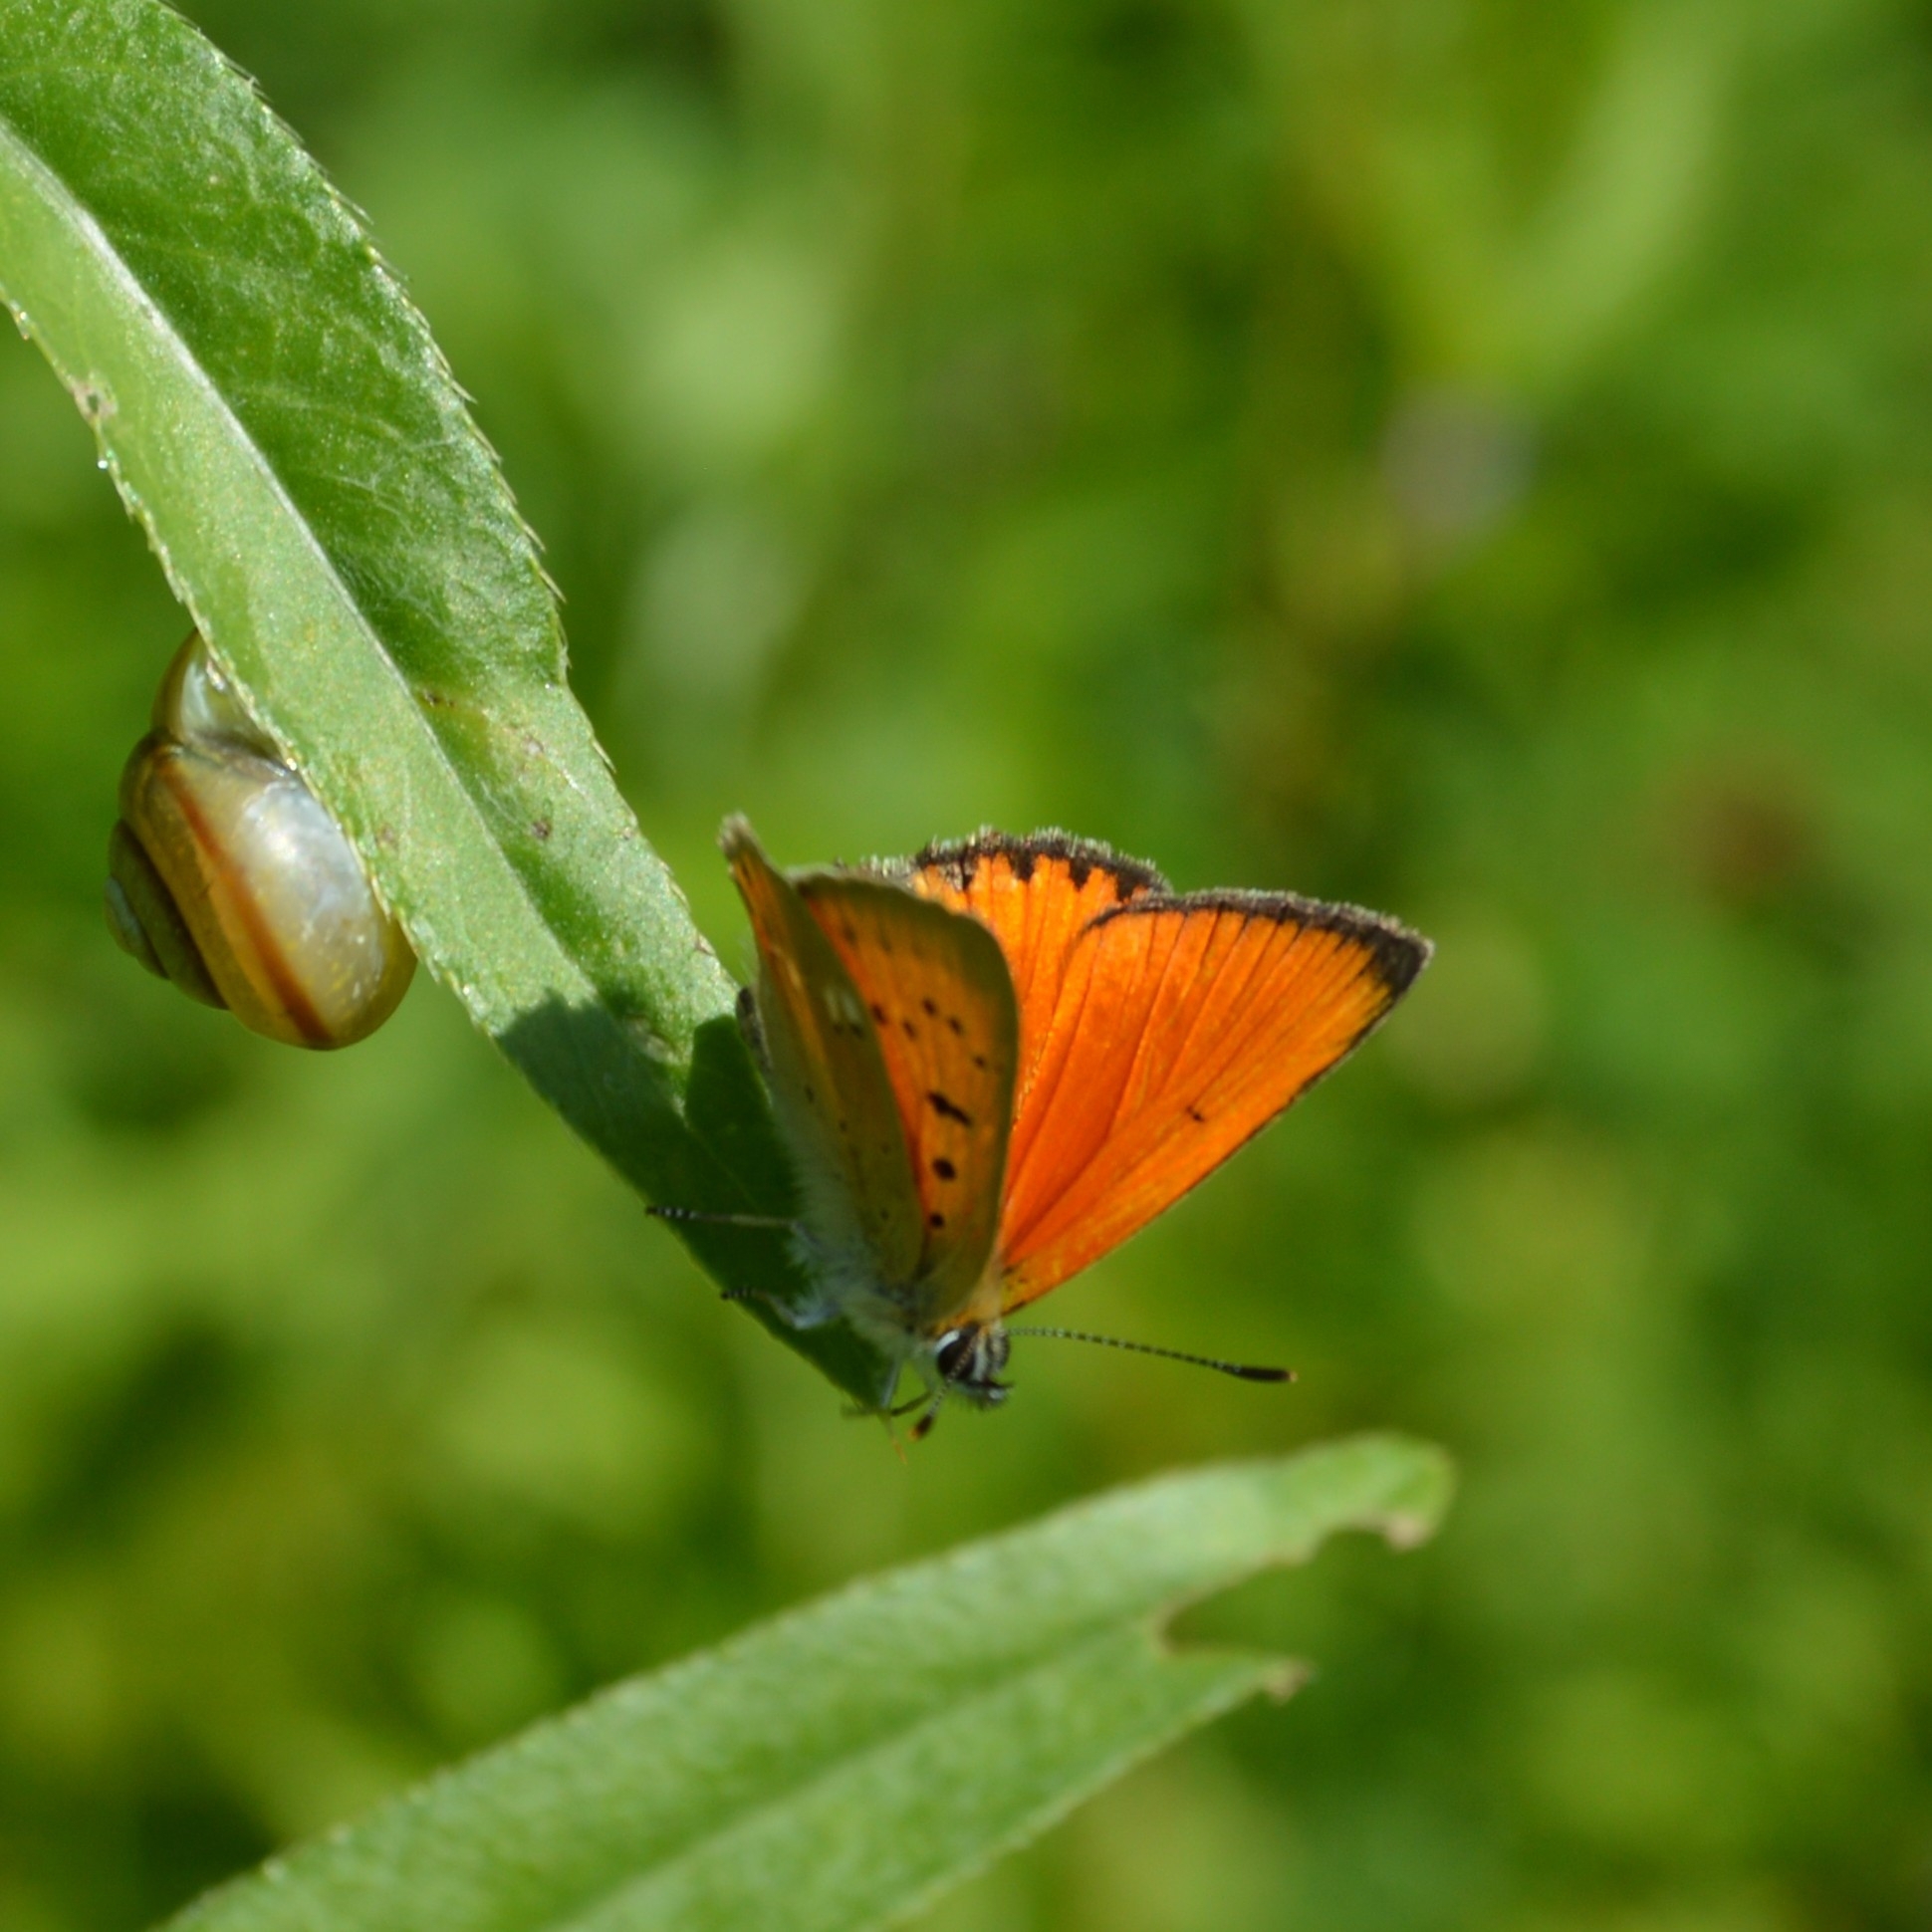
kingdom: Animalia
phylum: Arthropoda
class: Insecta
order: Lepidoptera
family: Lycaenidae
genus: Lycaena
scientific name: Lycaena virgaureae
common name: Scarce copper
